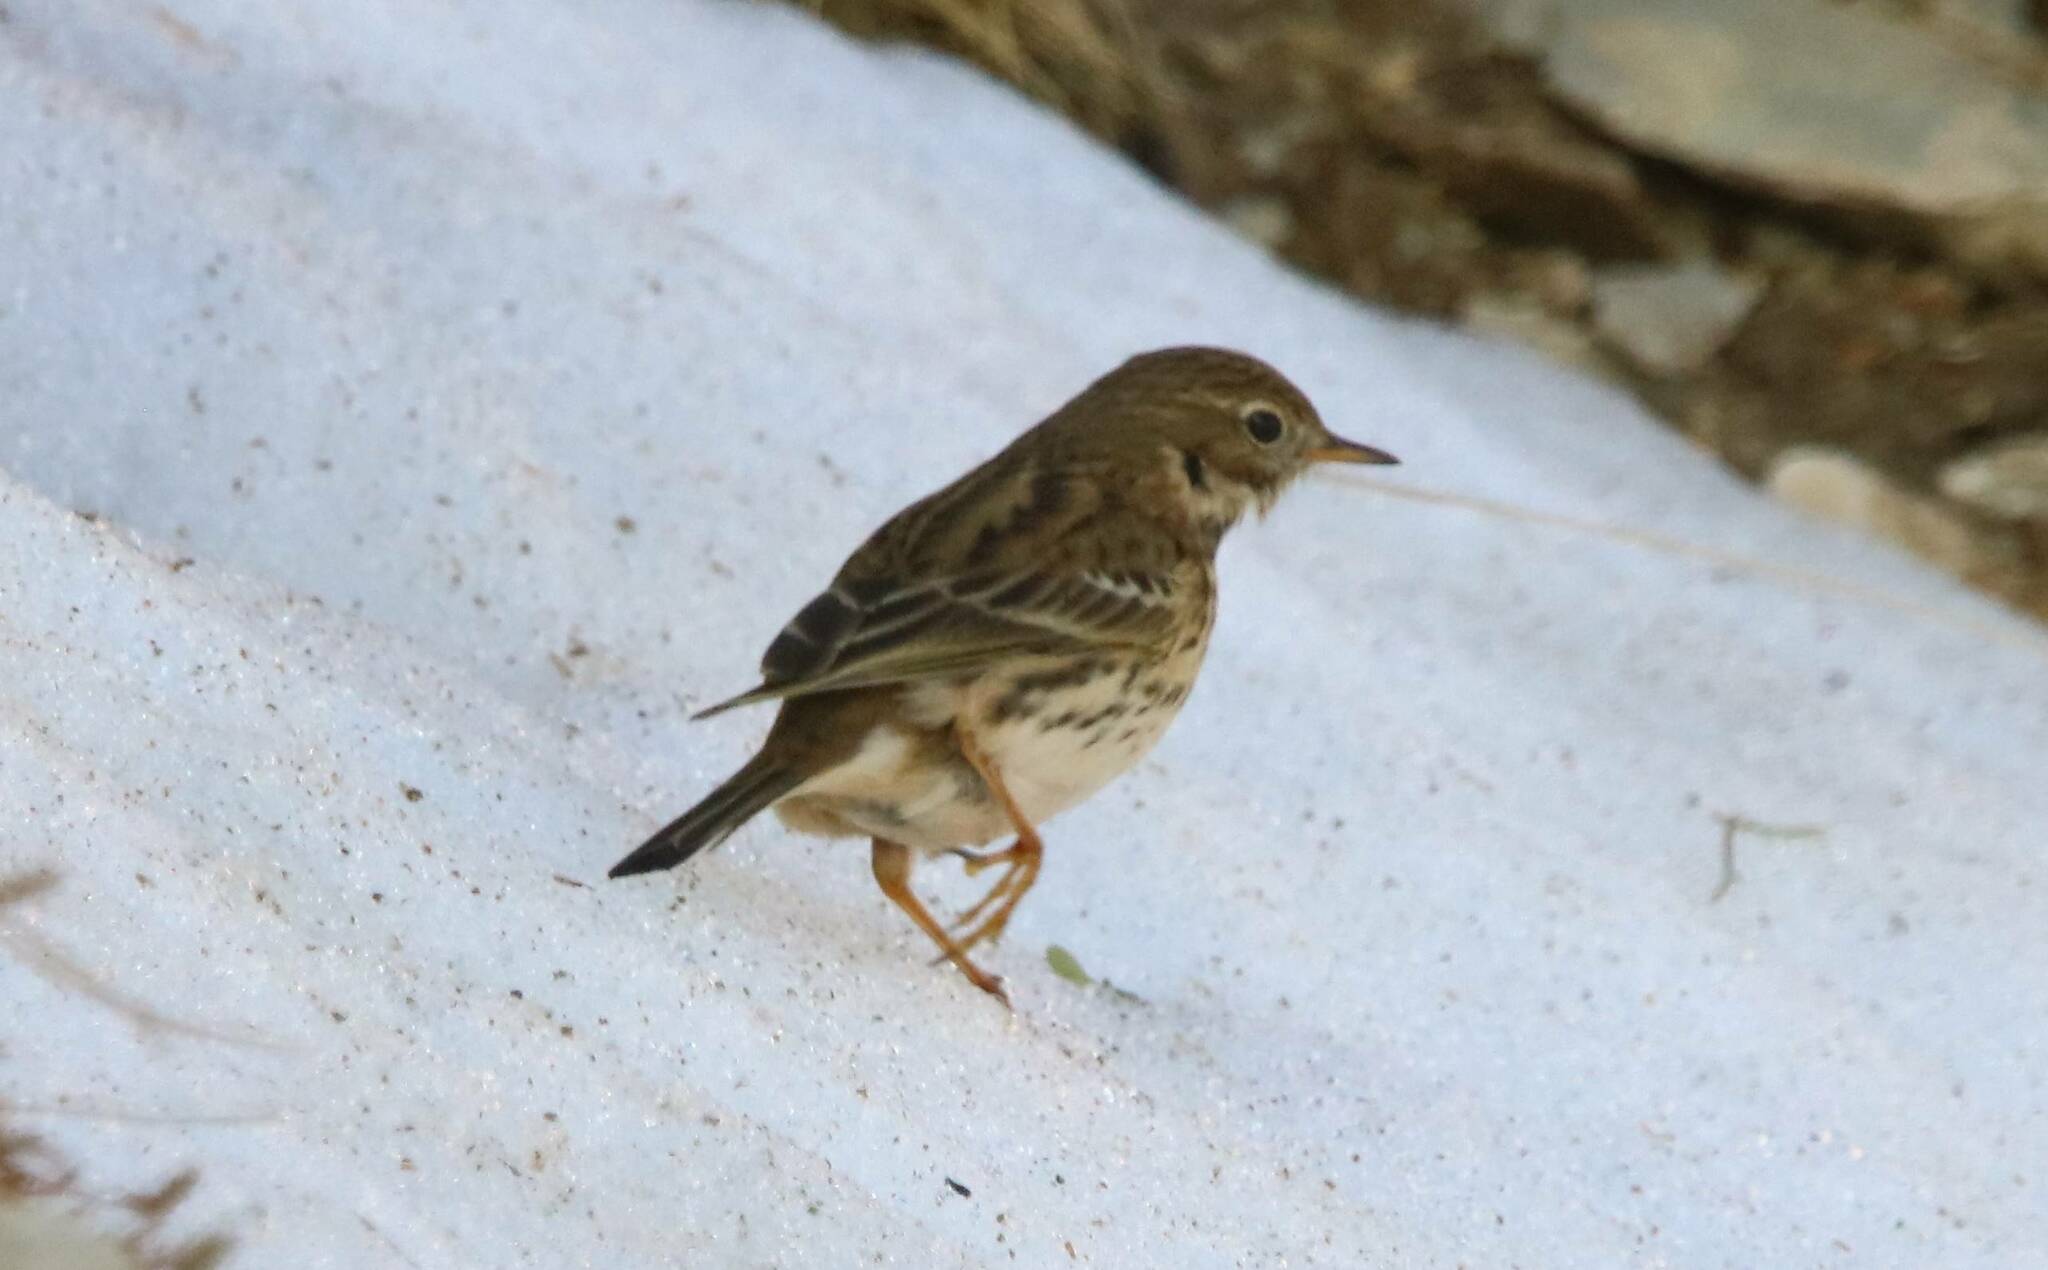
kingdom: Animalia
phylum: Chordata
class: Aves
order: Passeriformes
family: Motacillidae
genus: Anthus
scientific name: Anthus pratensis
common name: Meadow pipit
